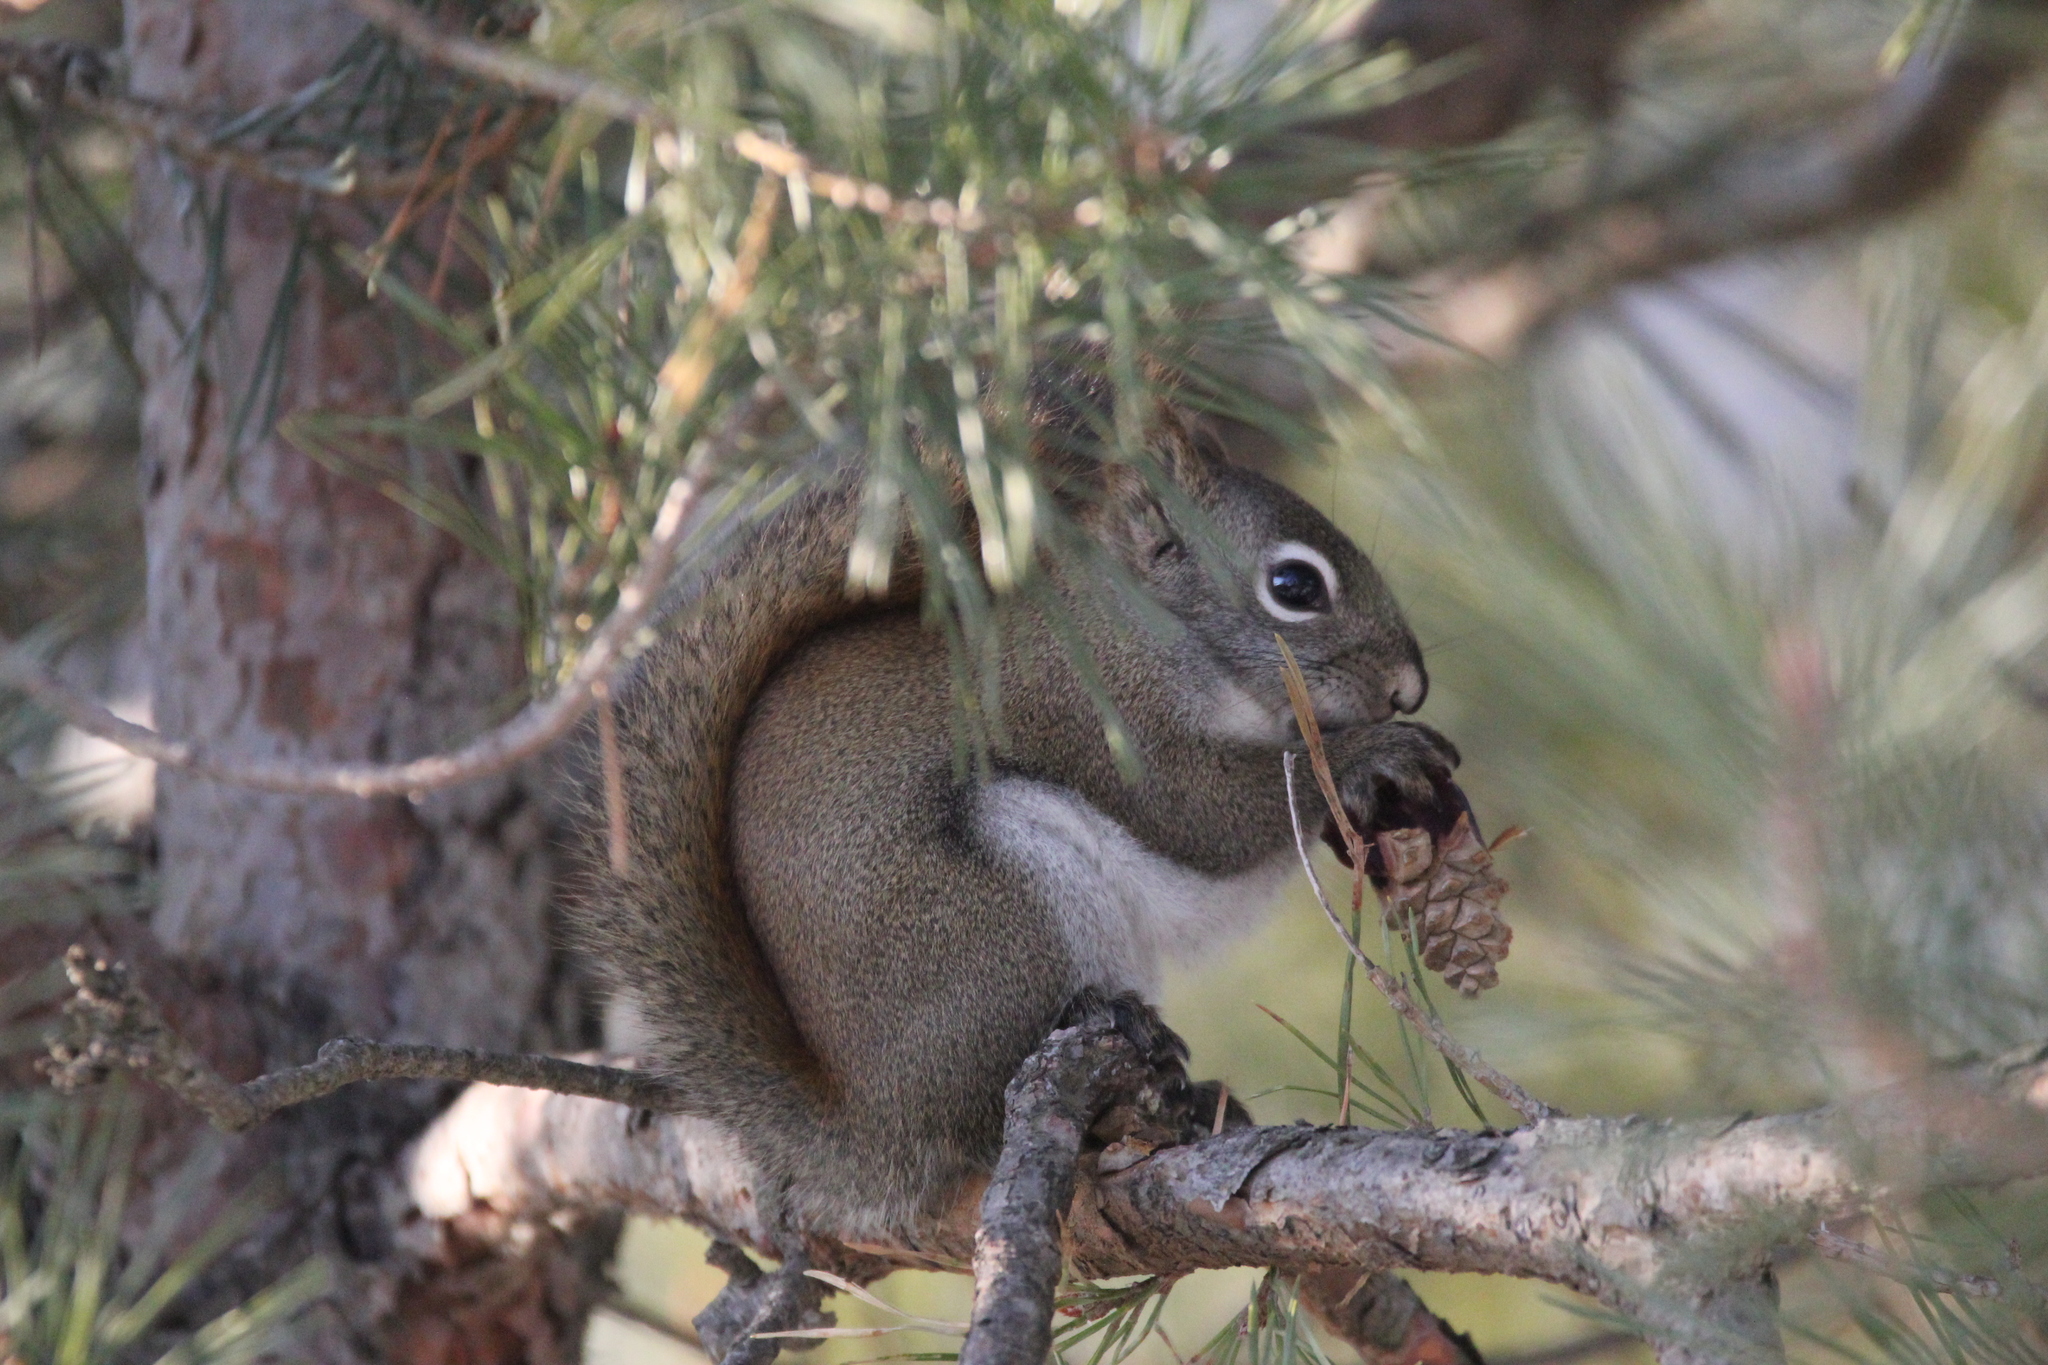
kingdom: Animalia
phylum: Chordata
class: Mammalia
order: Rodentia
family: Sciuridae
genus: Tamiasciurus
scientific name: Tamiasciurus hudsonicus
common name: Red squirrel
